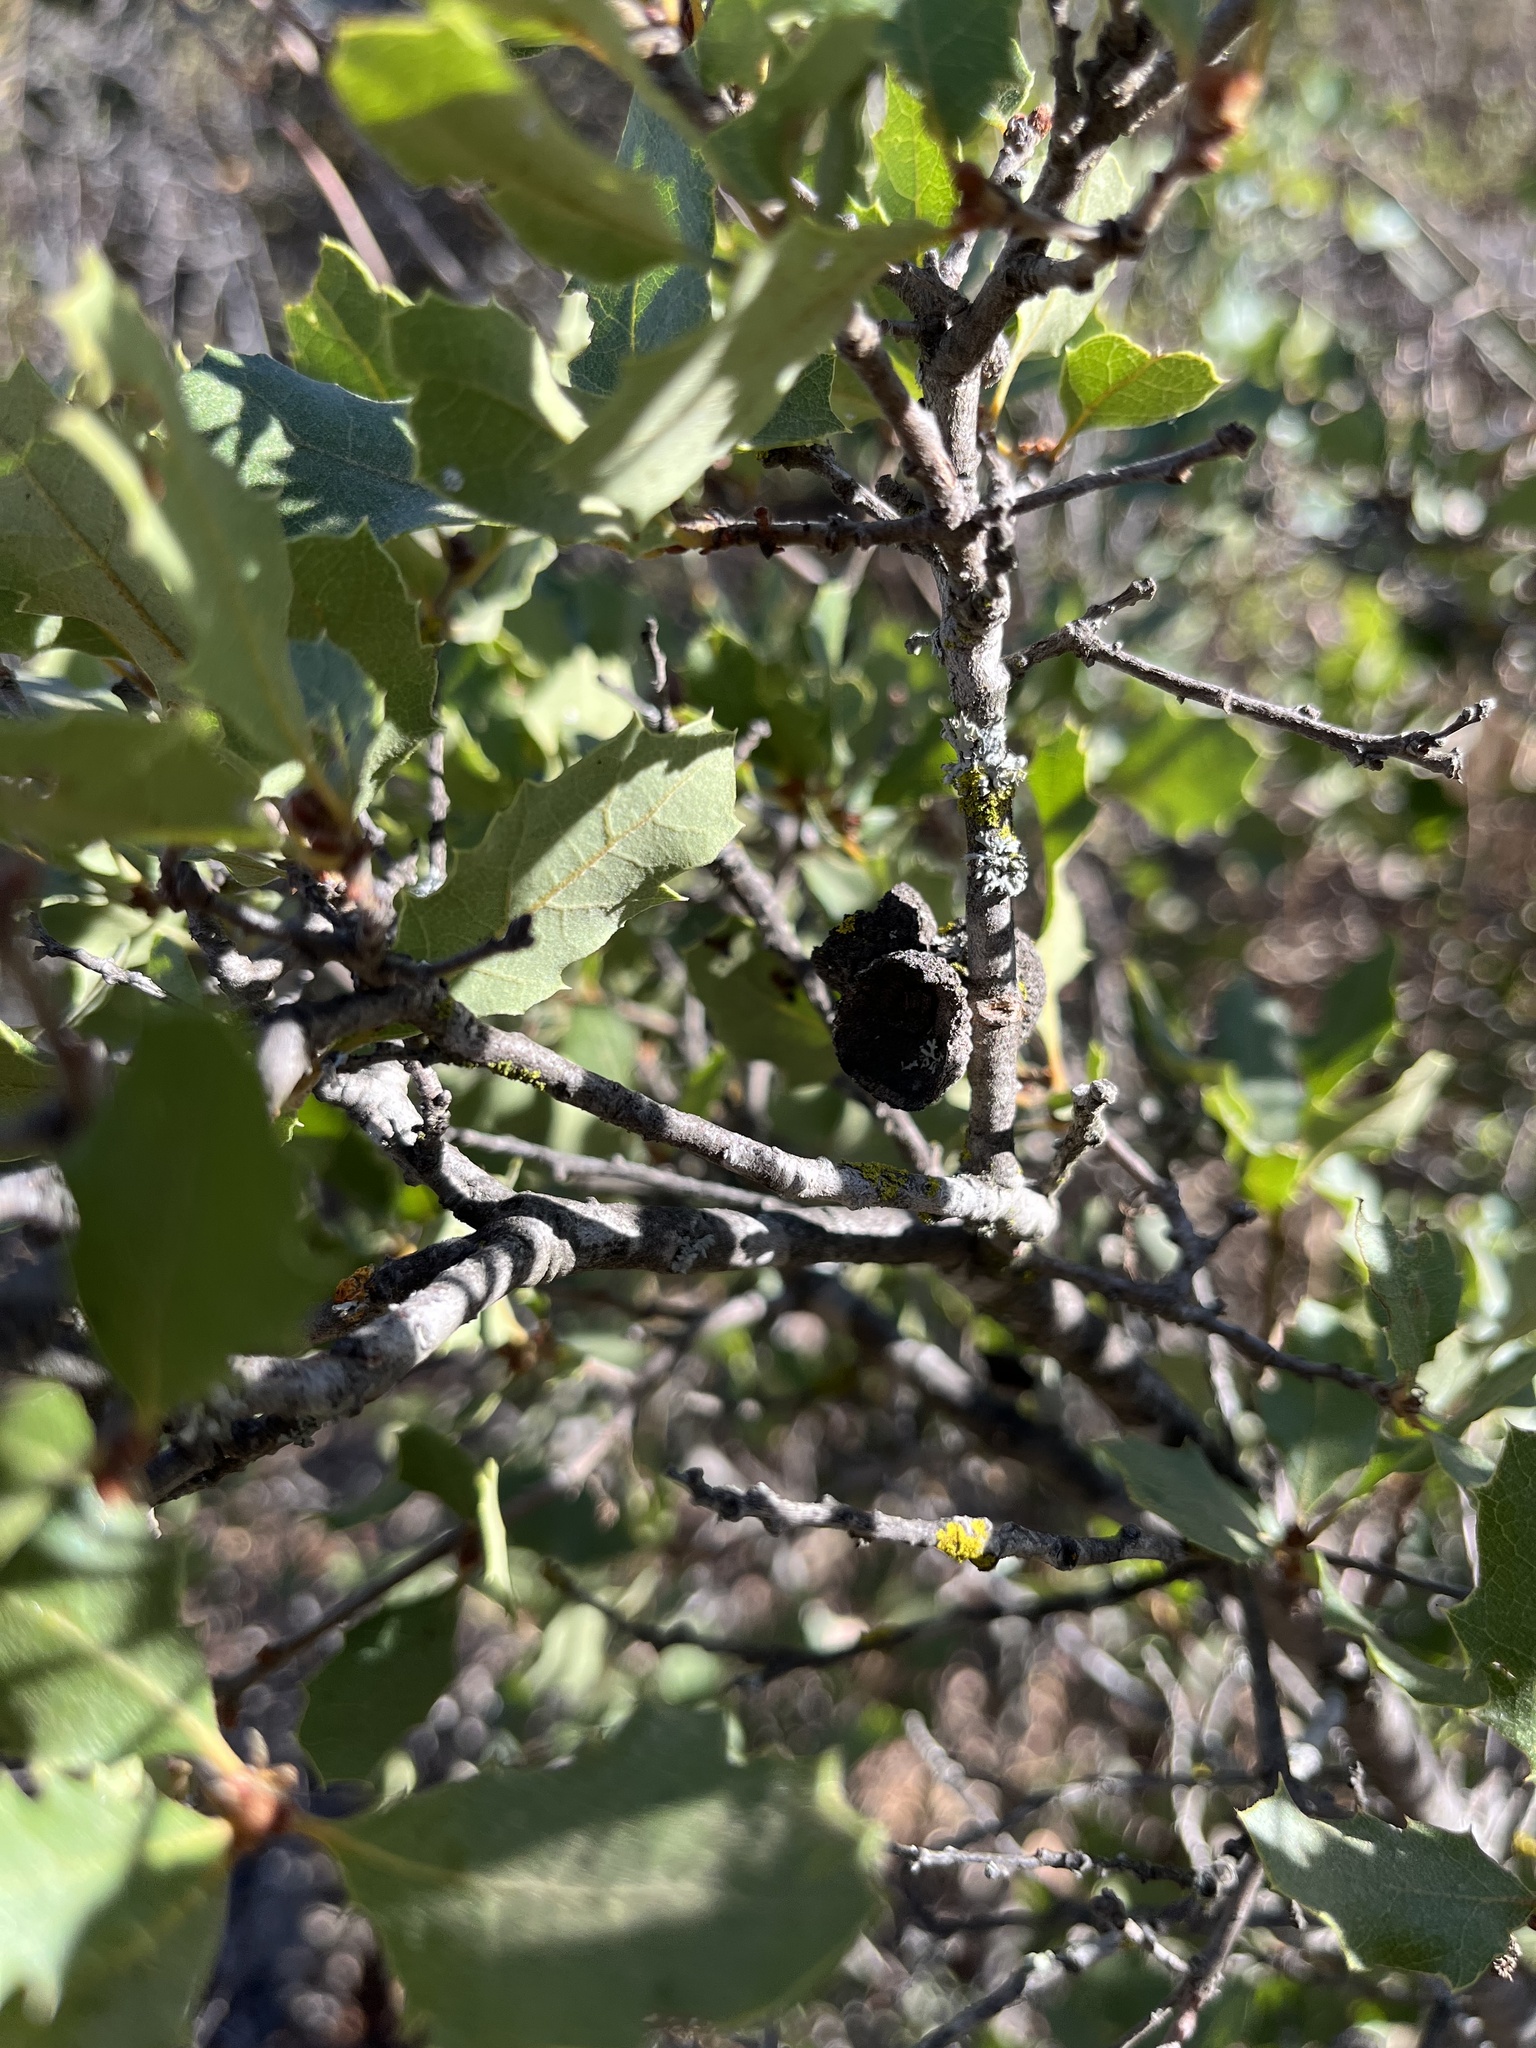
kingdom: Plantae
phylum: Tracheophyta
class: Magnoliopsida
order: Fagales
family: Fagaceae
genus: Quercus
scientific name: Quercus berberidifolia
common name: California scrub oak
